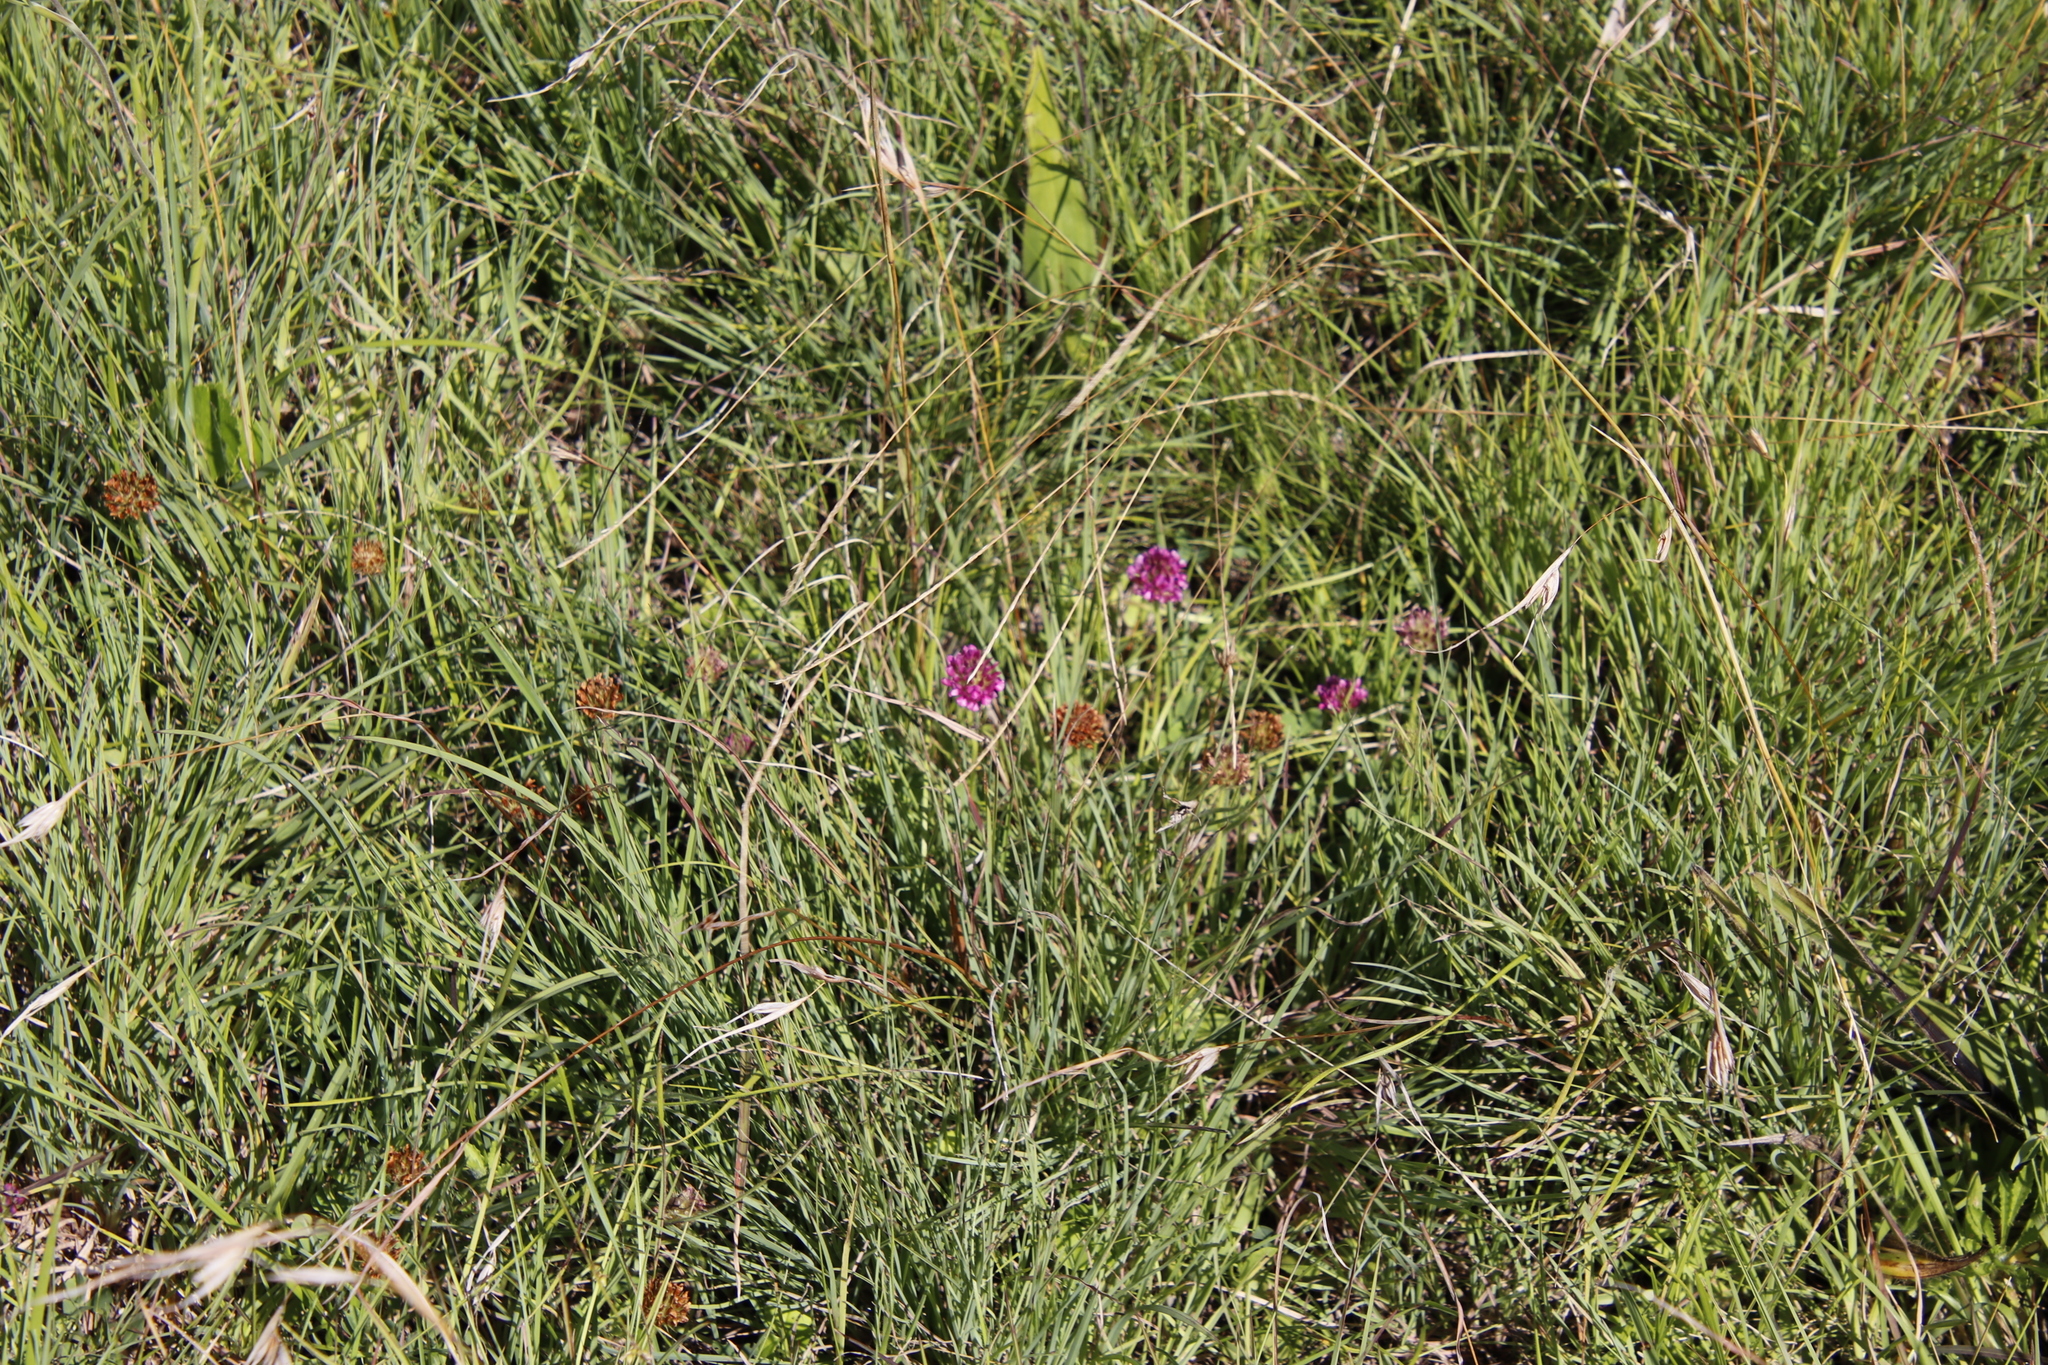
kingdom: Plantae
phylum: Tracheophyta
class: Magnoliopsida
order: Fabales
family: Fabaceae
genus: Trifolium
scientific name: Trifolium burchellianum
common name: Burchell's clover
